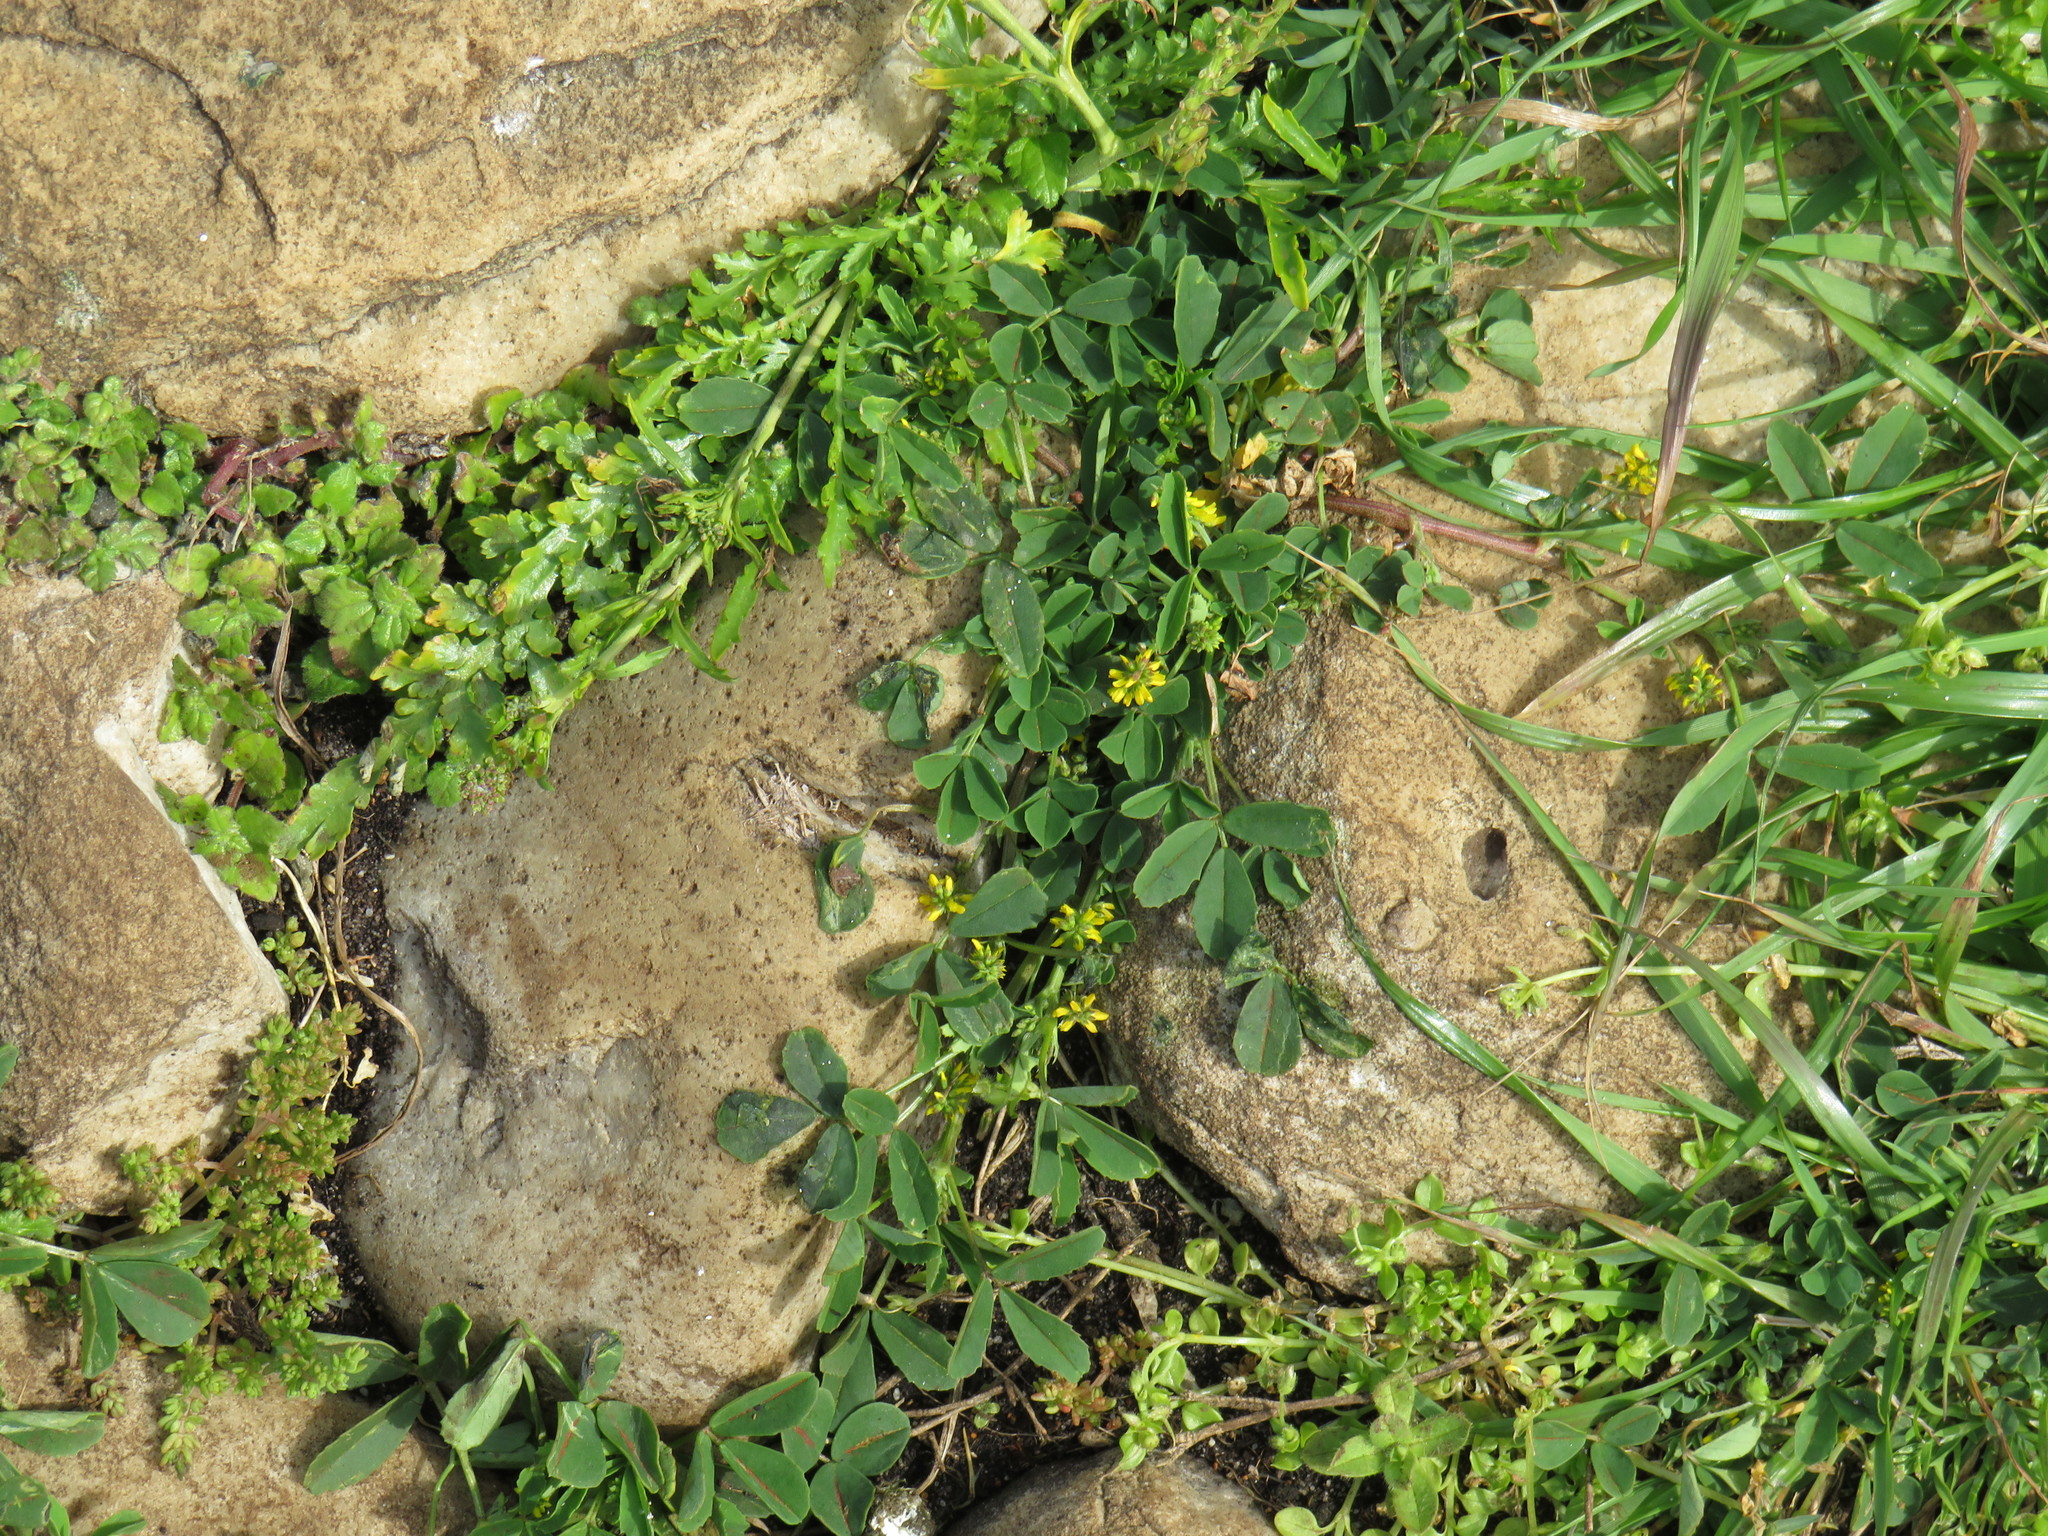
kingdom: Plantae
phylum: Tracheophyta
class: Magnoliopsida
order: Fabales
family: Fabaceae
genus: Melilotus
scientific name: Melilotus indicus
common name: Small melilot
